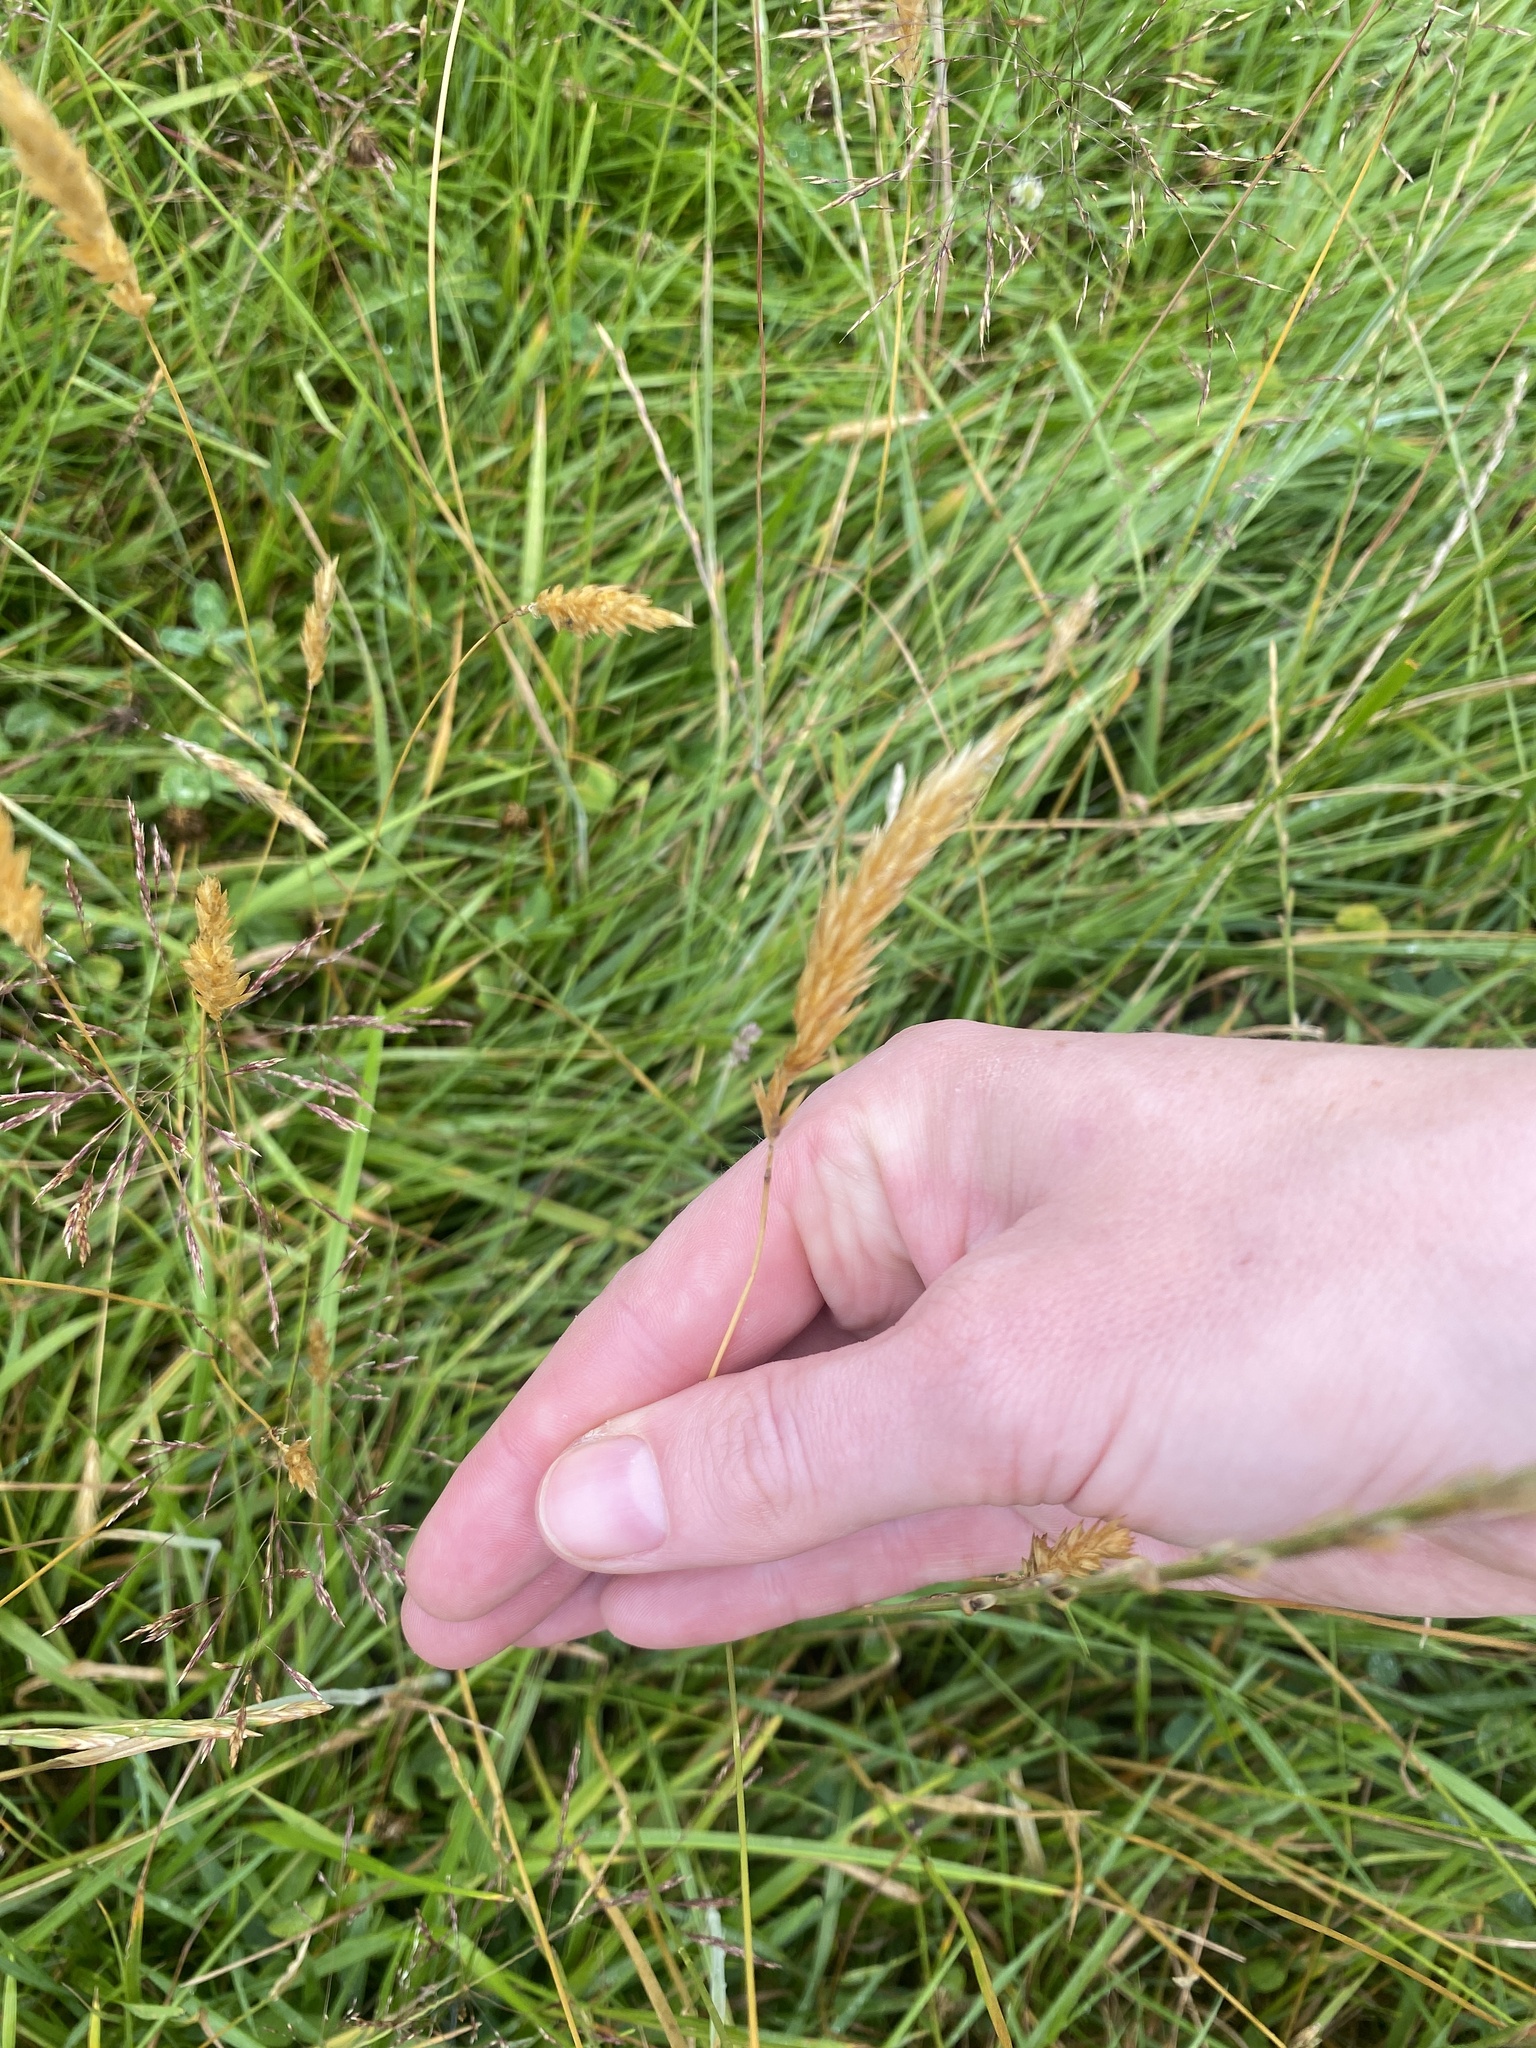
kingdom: Plantae
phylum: Tracheophyta
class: Liliopsida
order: Poales
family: Poaceae
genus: Anthoxanthum
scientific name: Anthoxanthum odoratum
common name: Sweet vernalgrass
